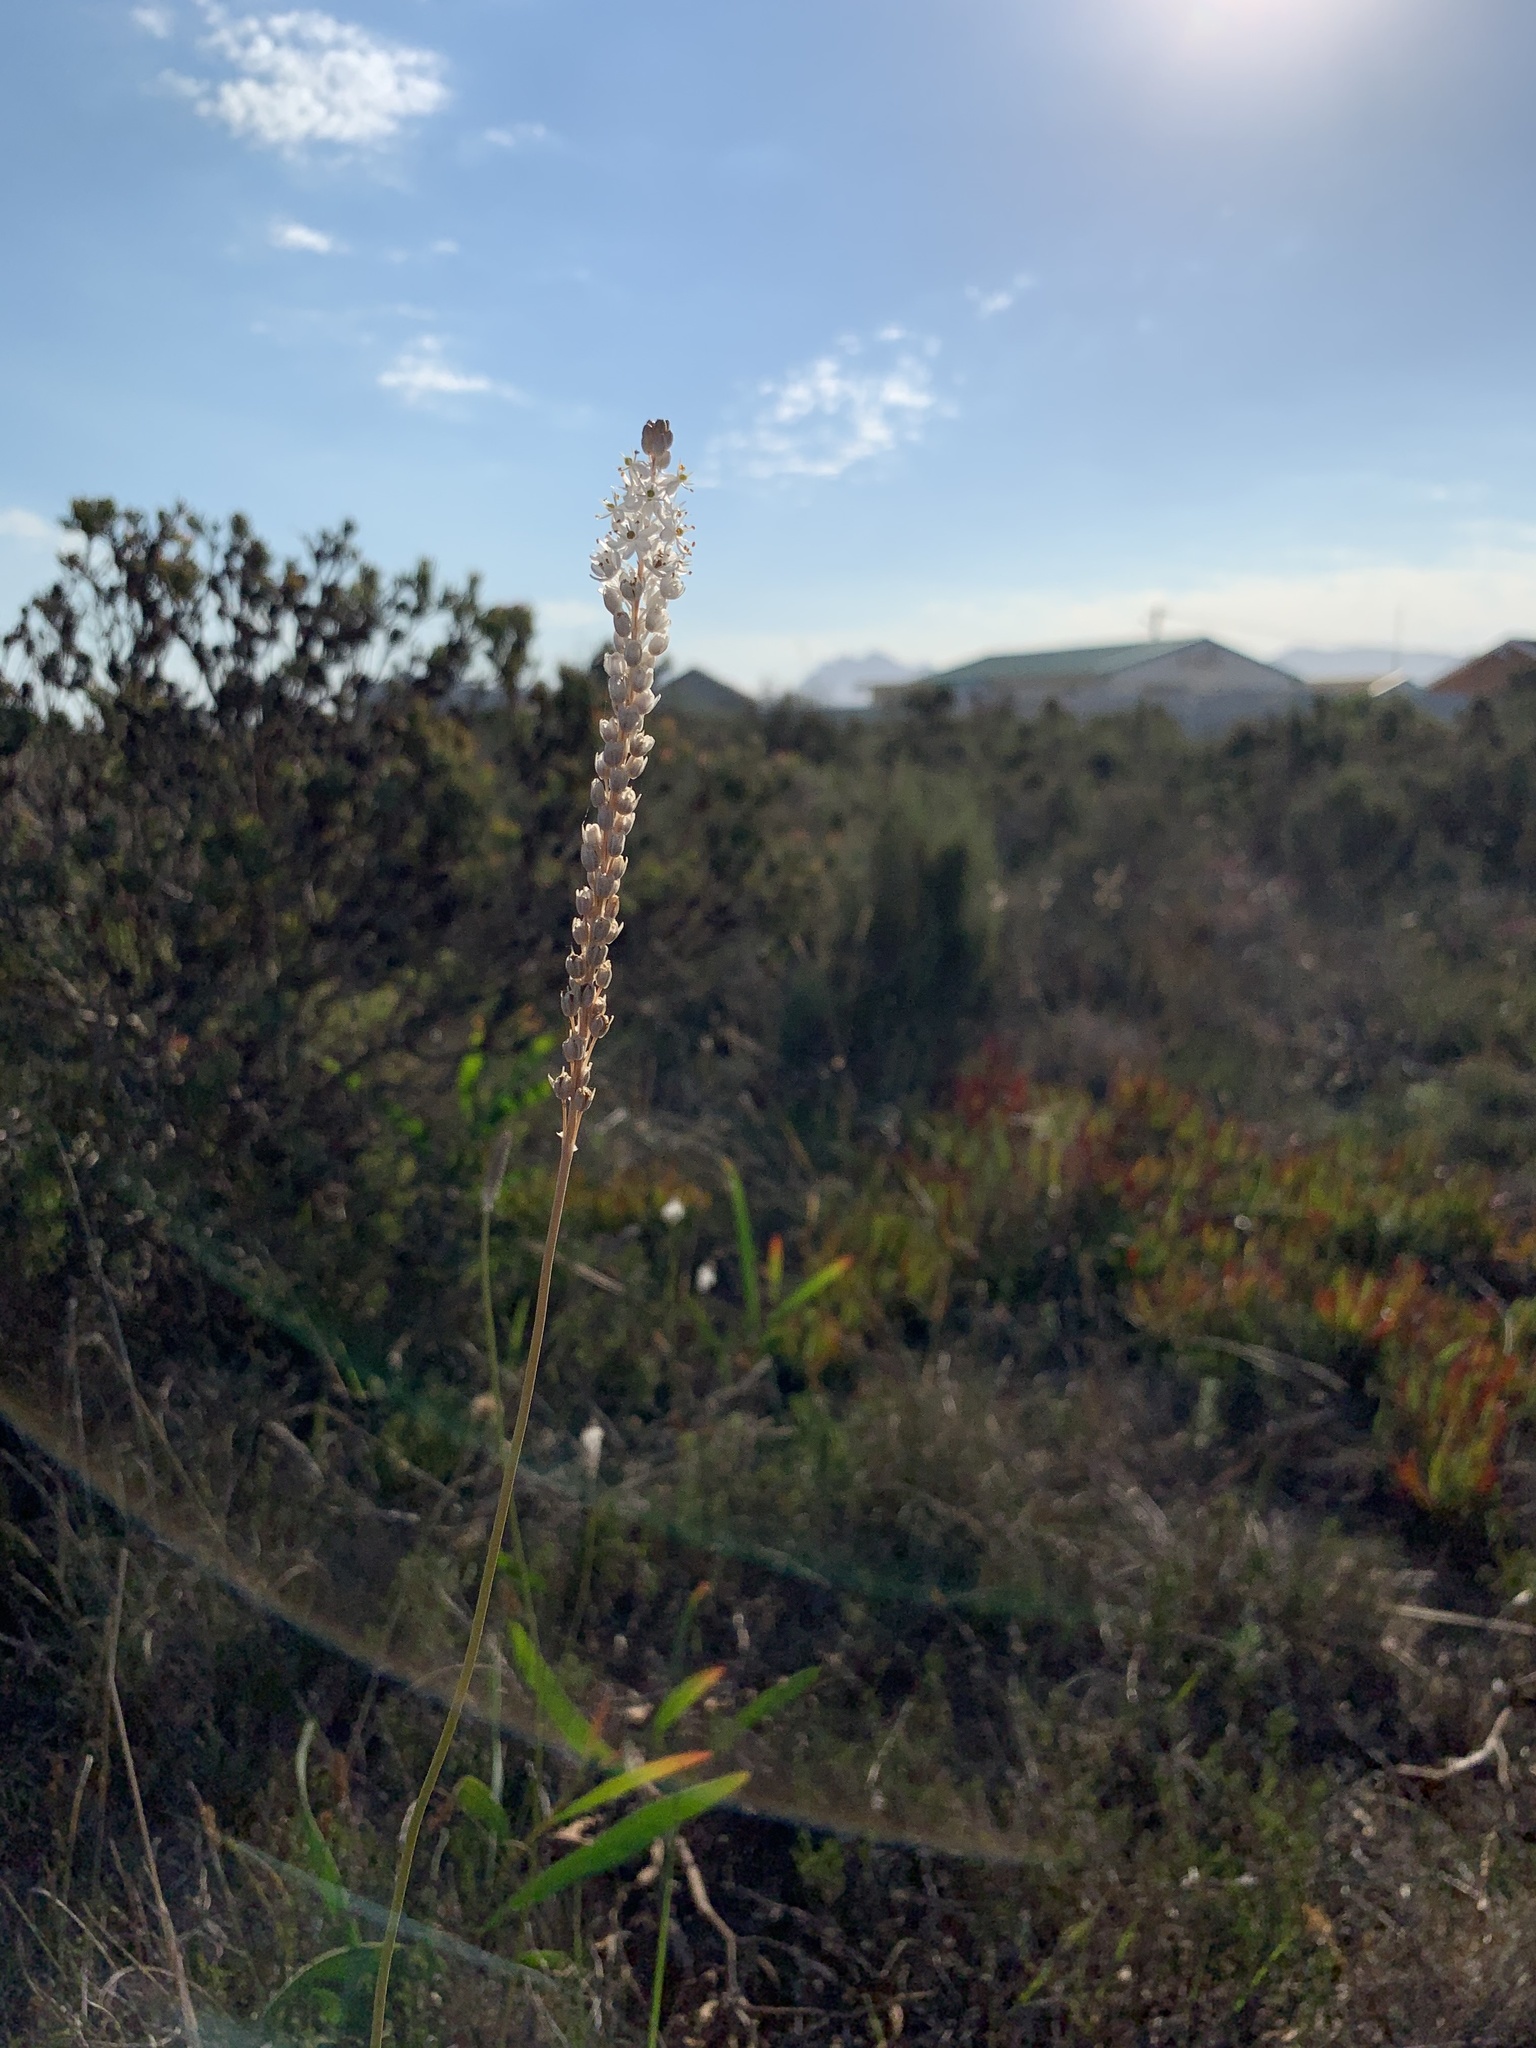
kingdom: Plantae
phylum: Tracheophyta
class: Liliopsida
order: Asparagales
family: Asphodelaceae
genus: Bulbinella
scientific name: Bulbinella trinervis
